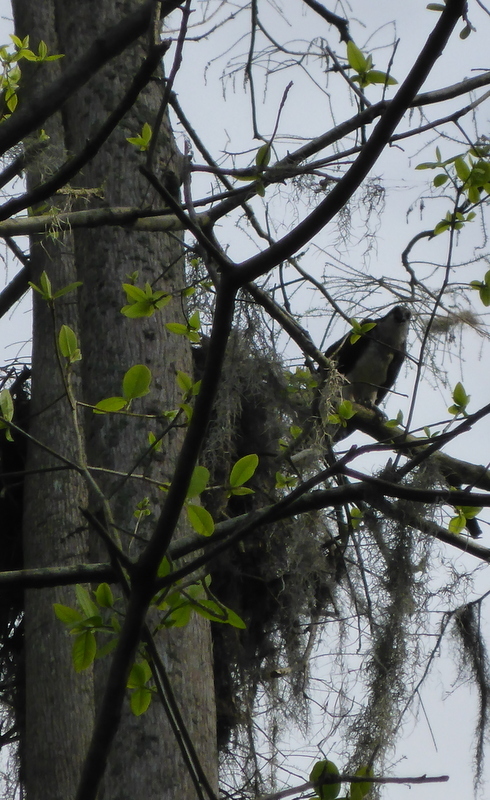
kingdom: Animalia
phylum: Chordata
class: Aves
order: Accipitriformes
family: Pandionidae
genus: Pandion
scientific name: Pandion haliaetus
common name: Osprey
